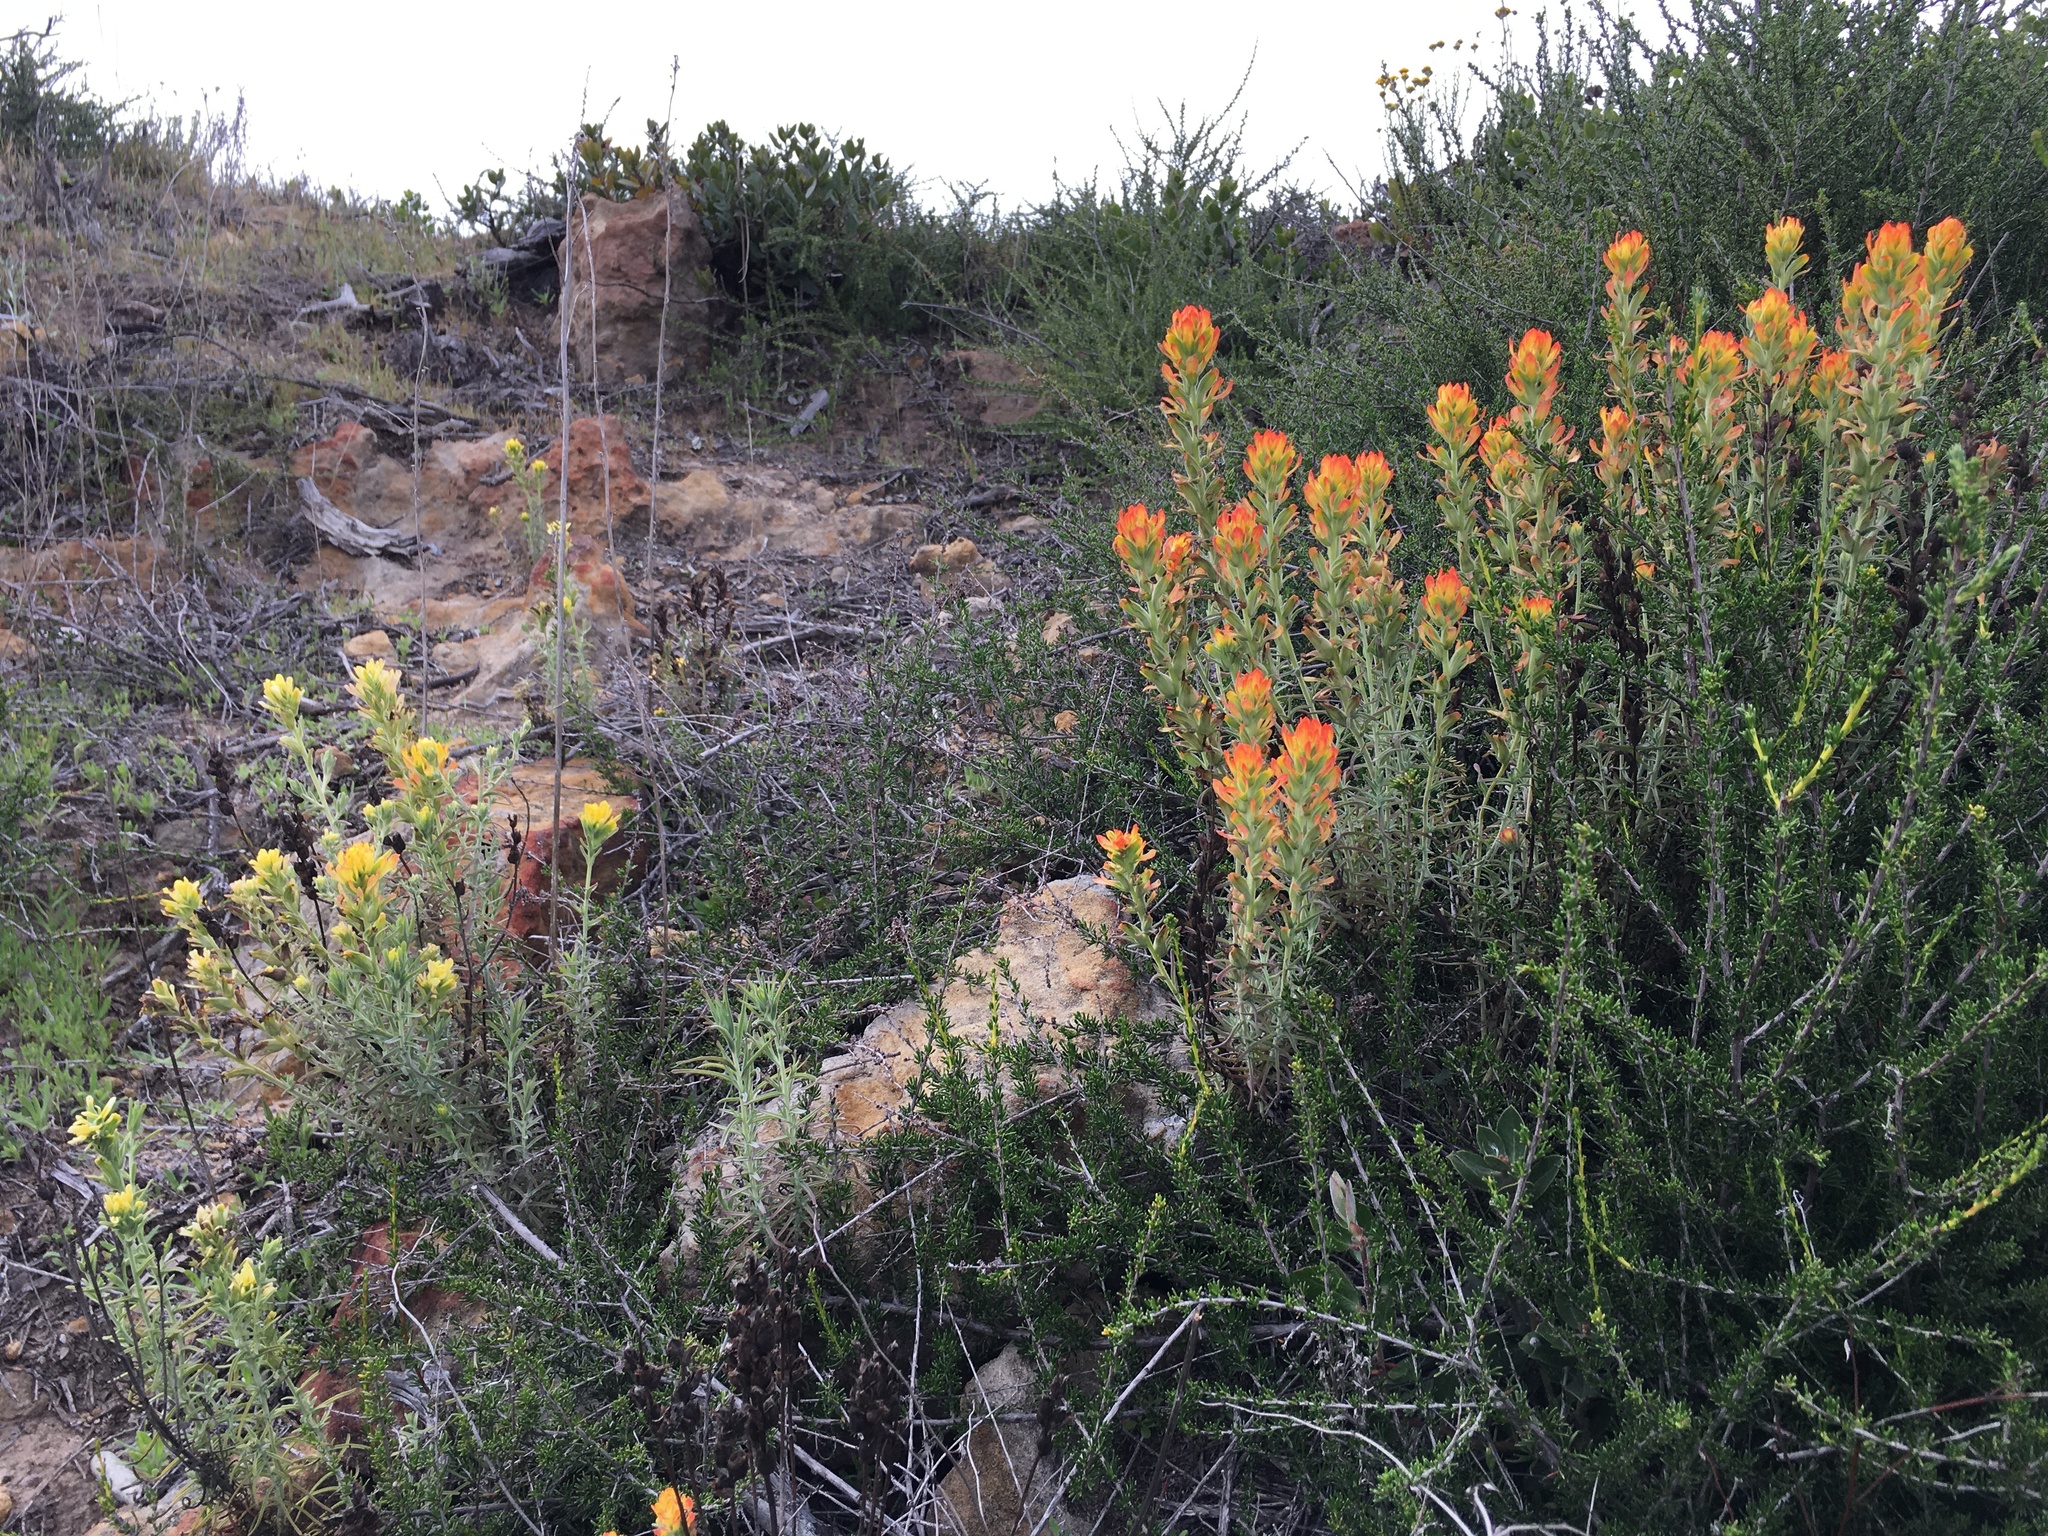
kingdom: Plantae
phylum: Tracheophyta
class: Magnoliopsida
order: Lamiales
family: Orobanchaceae
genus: Castilleja
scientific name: Castilleja foliolosa
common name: Woolly indian paintbrush
